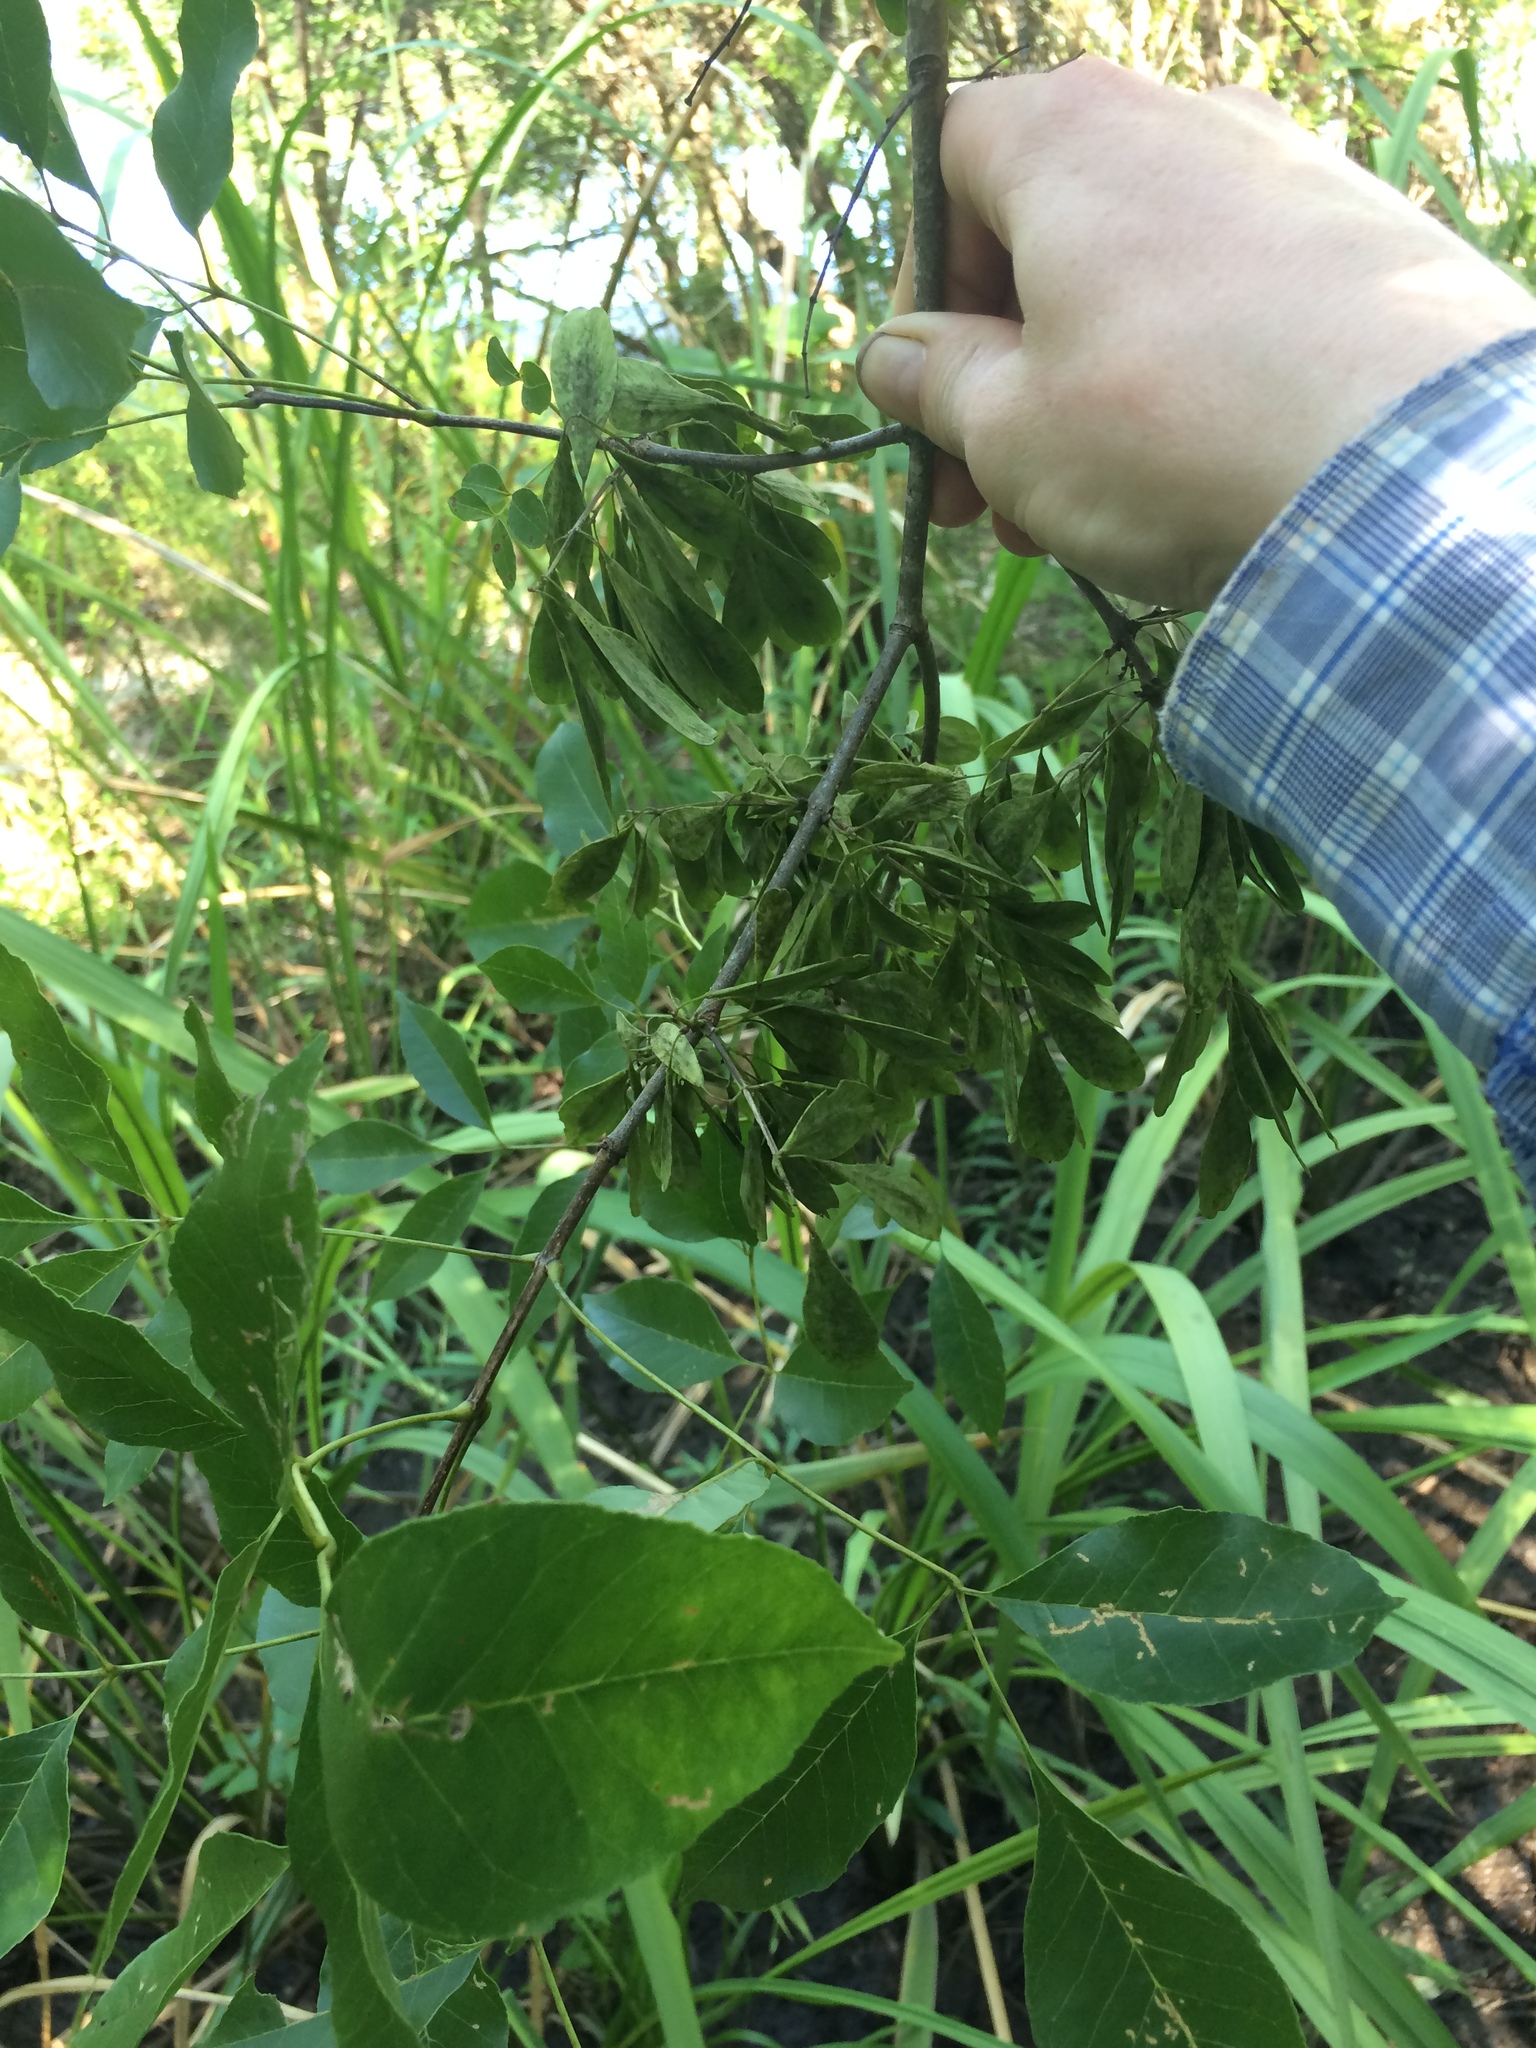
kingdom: Plantae
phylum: Tracheophyta
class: Magnoliopsida
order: Lamiales
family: Oleaceae
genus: Fraxinus
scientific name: Fraxinus caroliniana
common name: Carolina ash
